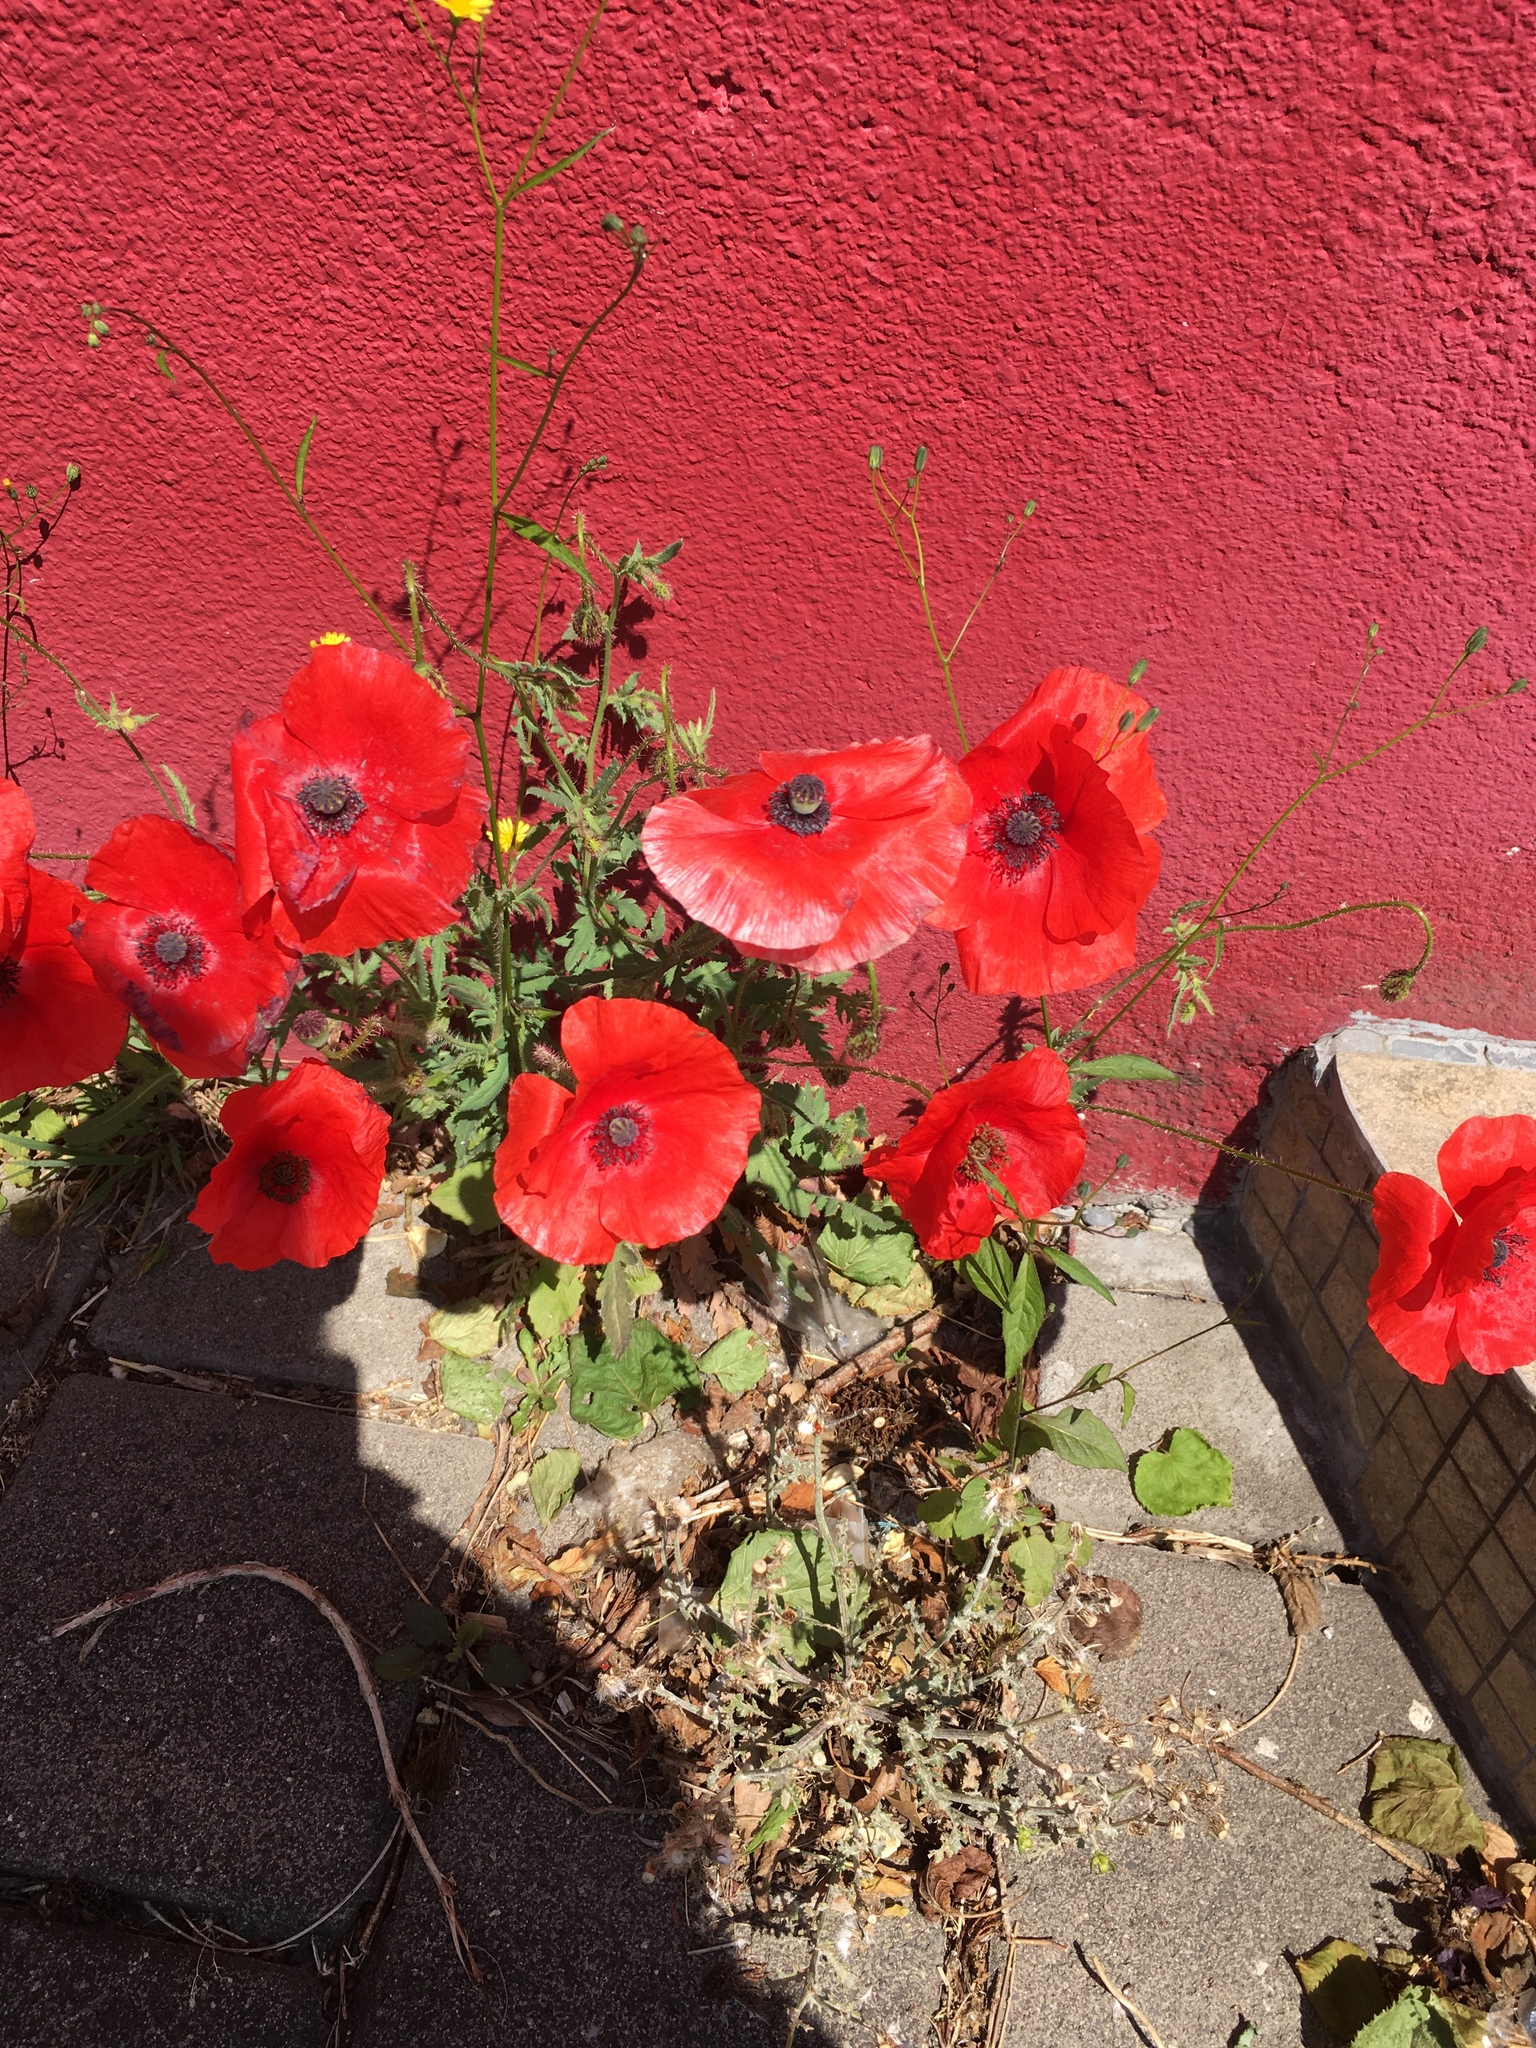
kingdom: Plantae
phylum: Tracheophyta
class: Magnoliopsida
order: Ranunculales
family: Papaveraceae
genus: Papaver
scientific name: Papaver rhoeas
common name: Corn poppy
